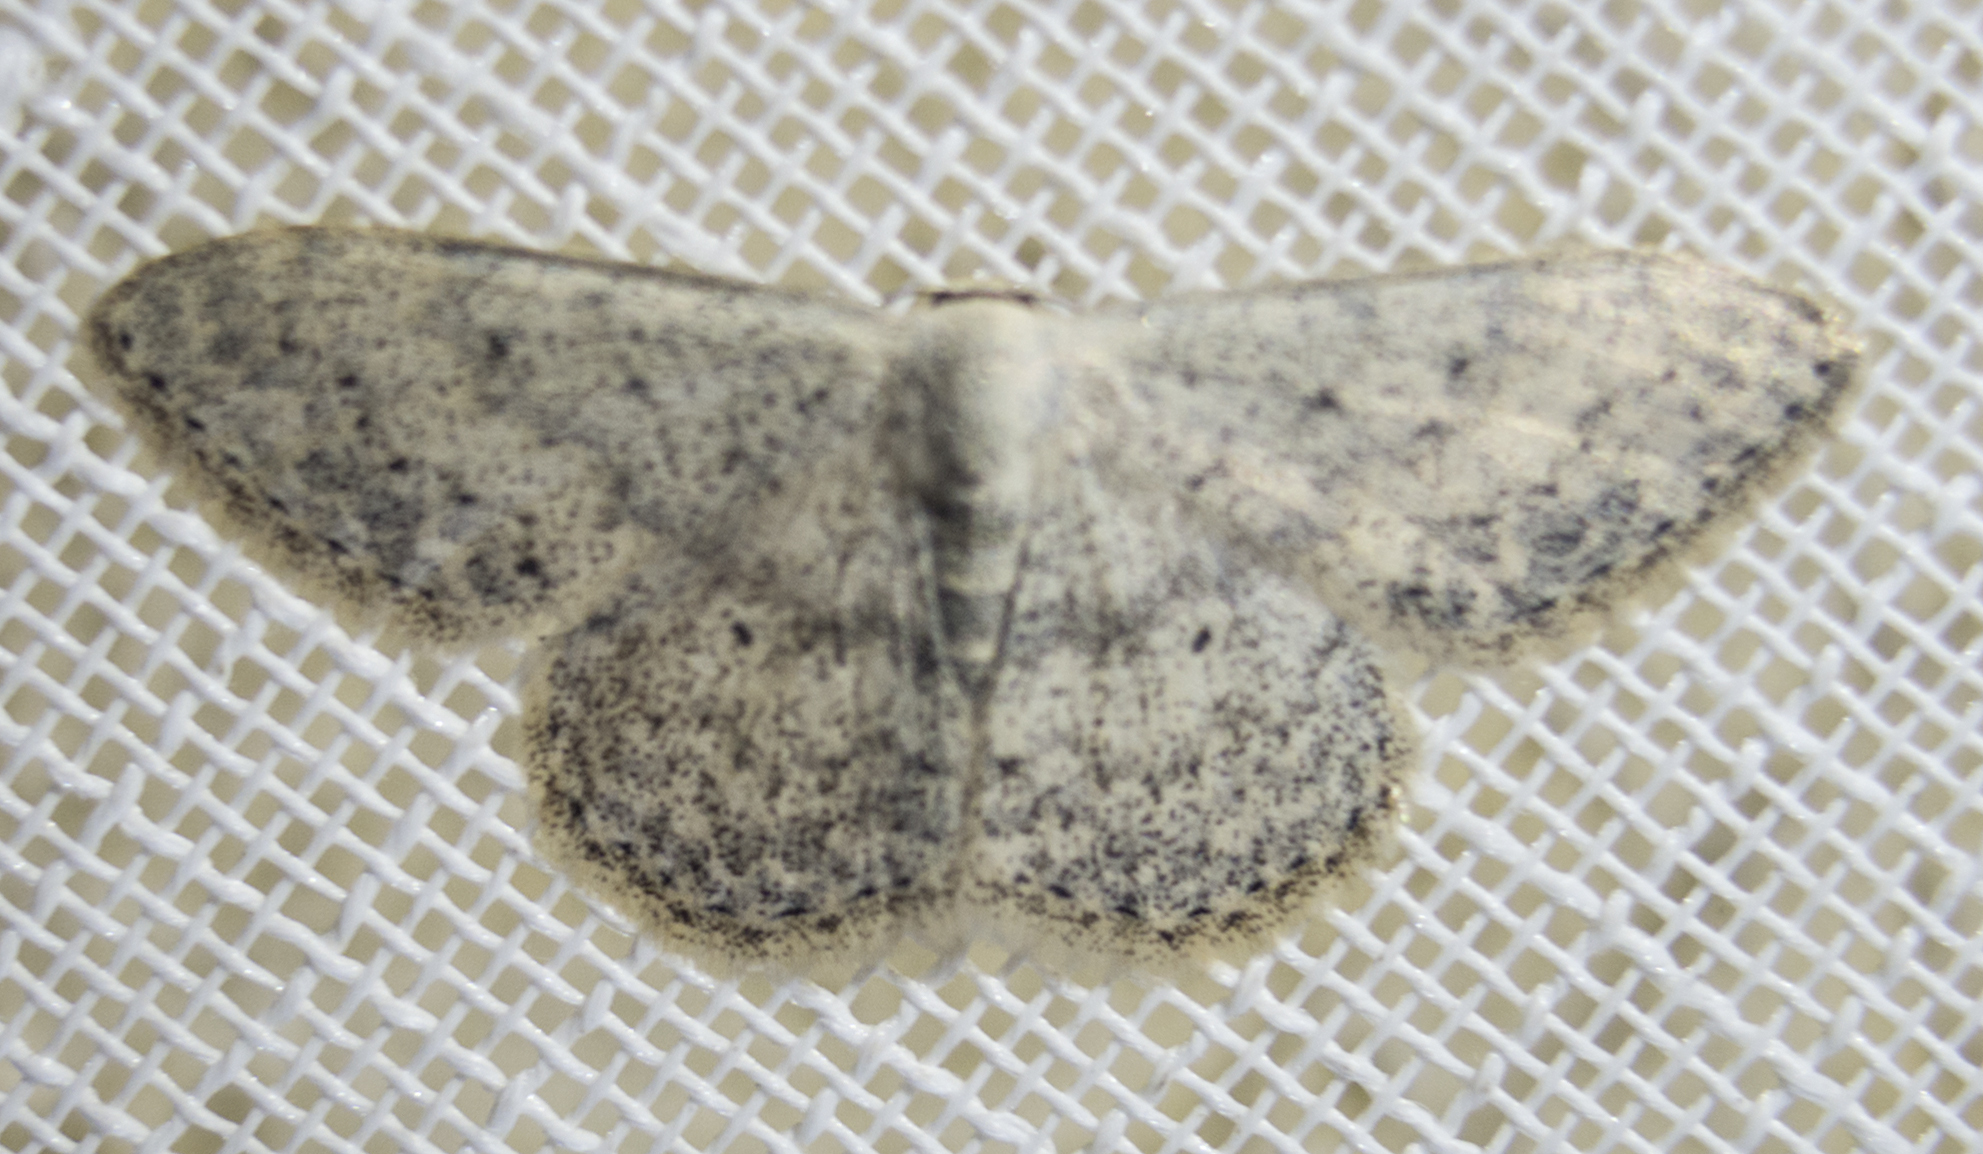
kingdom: Animalia
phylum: Arthropoda
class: Insecta
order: Lepidoptera
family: Geometridae
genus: Scopula
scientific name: Scopula marginepunctata
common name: Mullein wave
